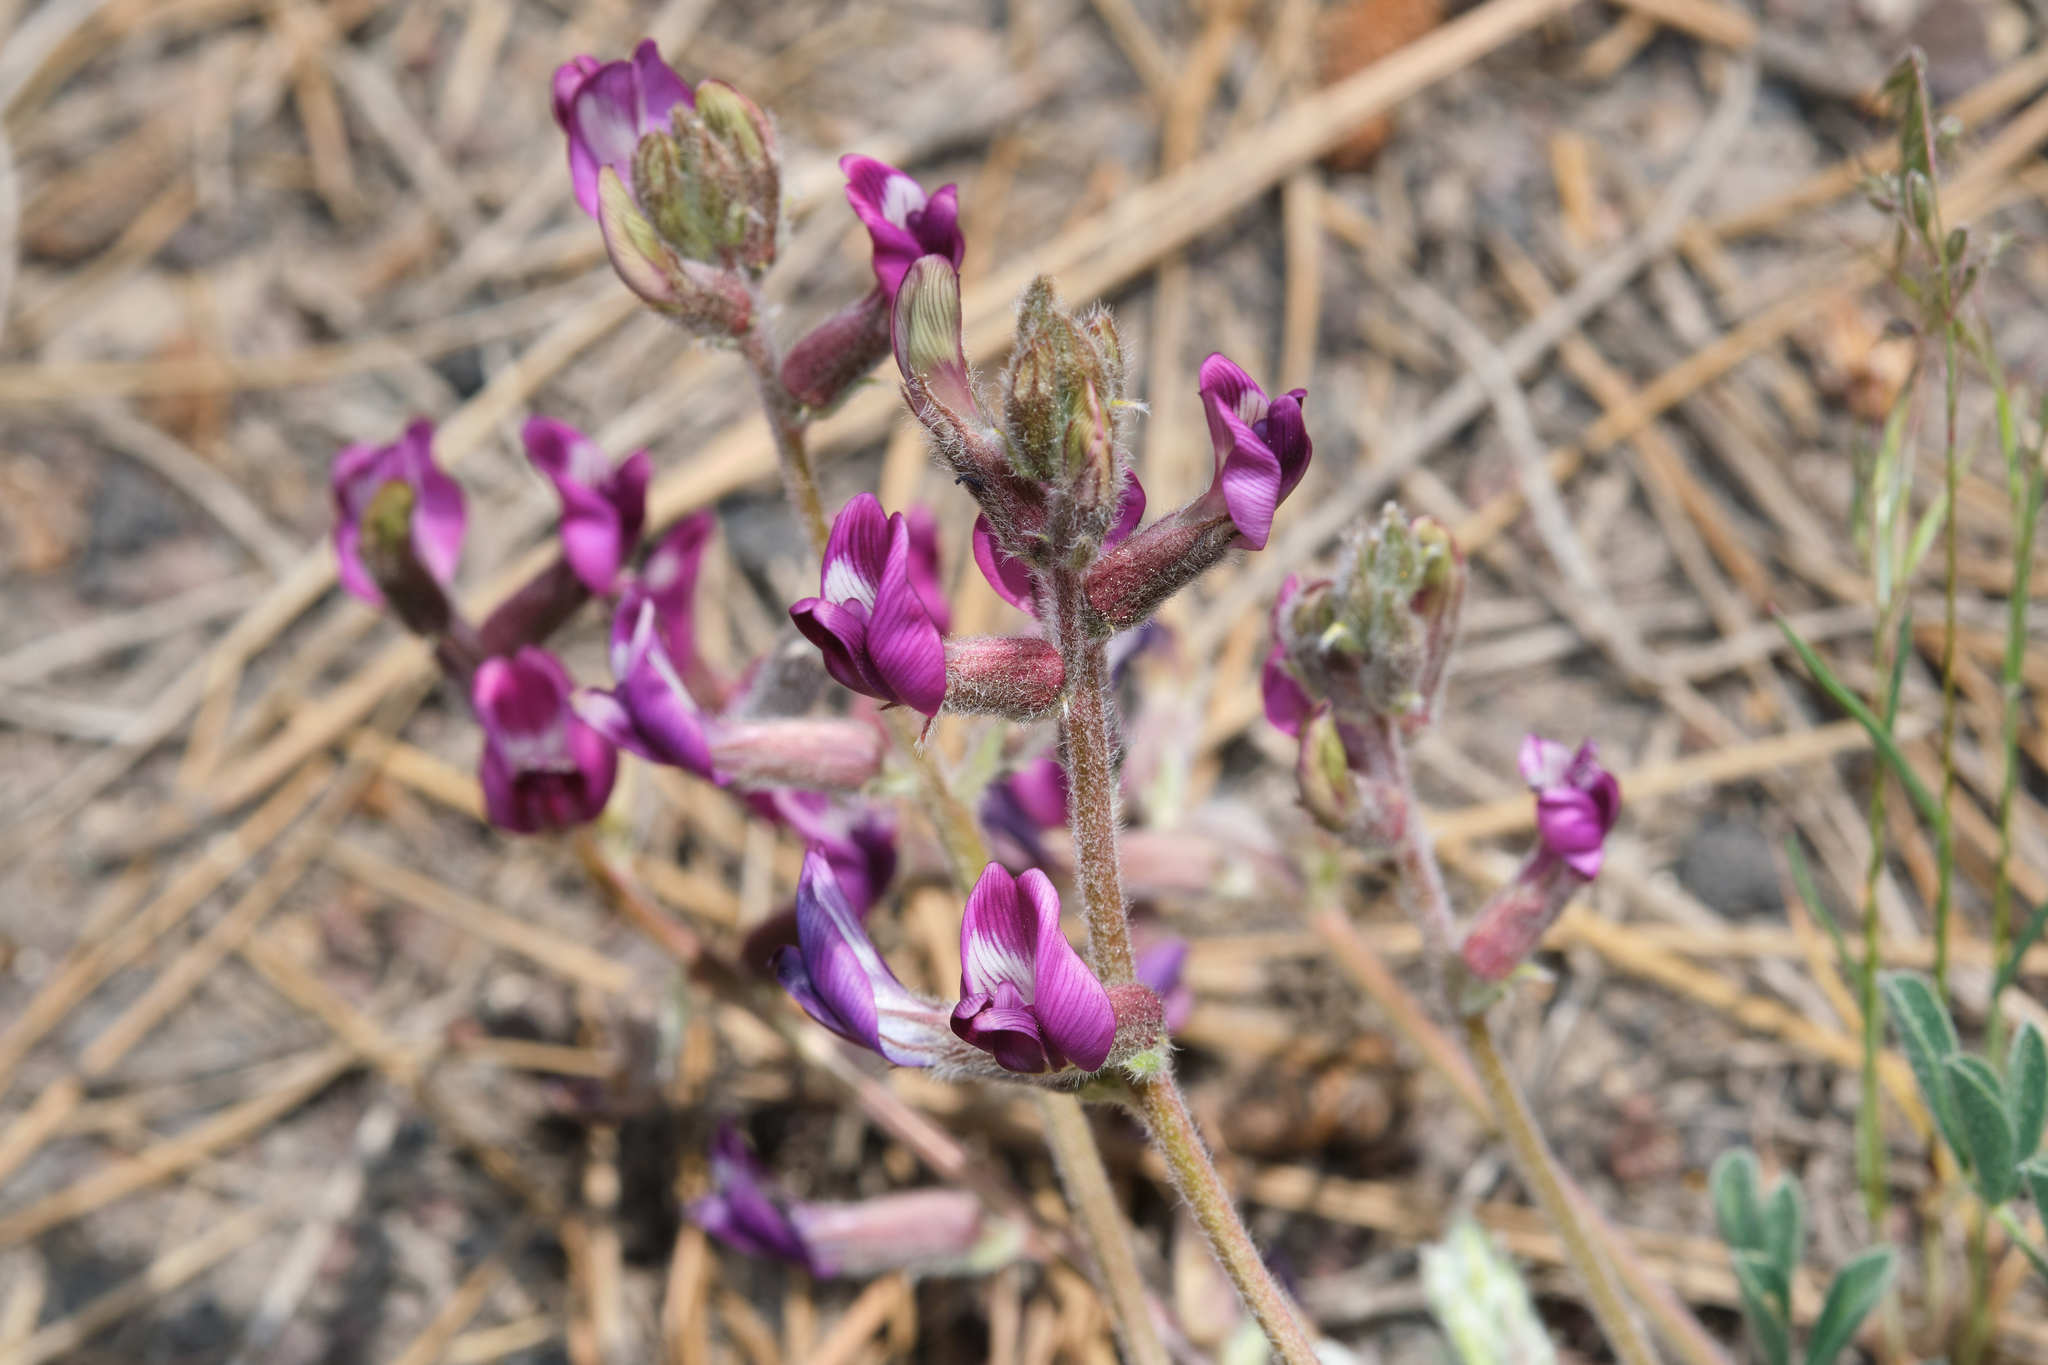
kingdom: Plantae
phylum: Tracheophyta
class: Magnoliopsida
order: Fabales
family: Fabaceae
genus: Astragalus
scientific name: Astragalus purshii
